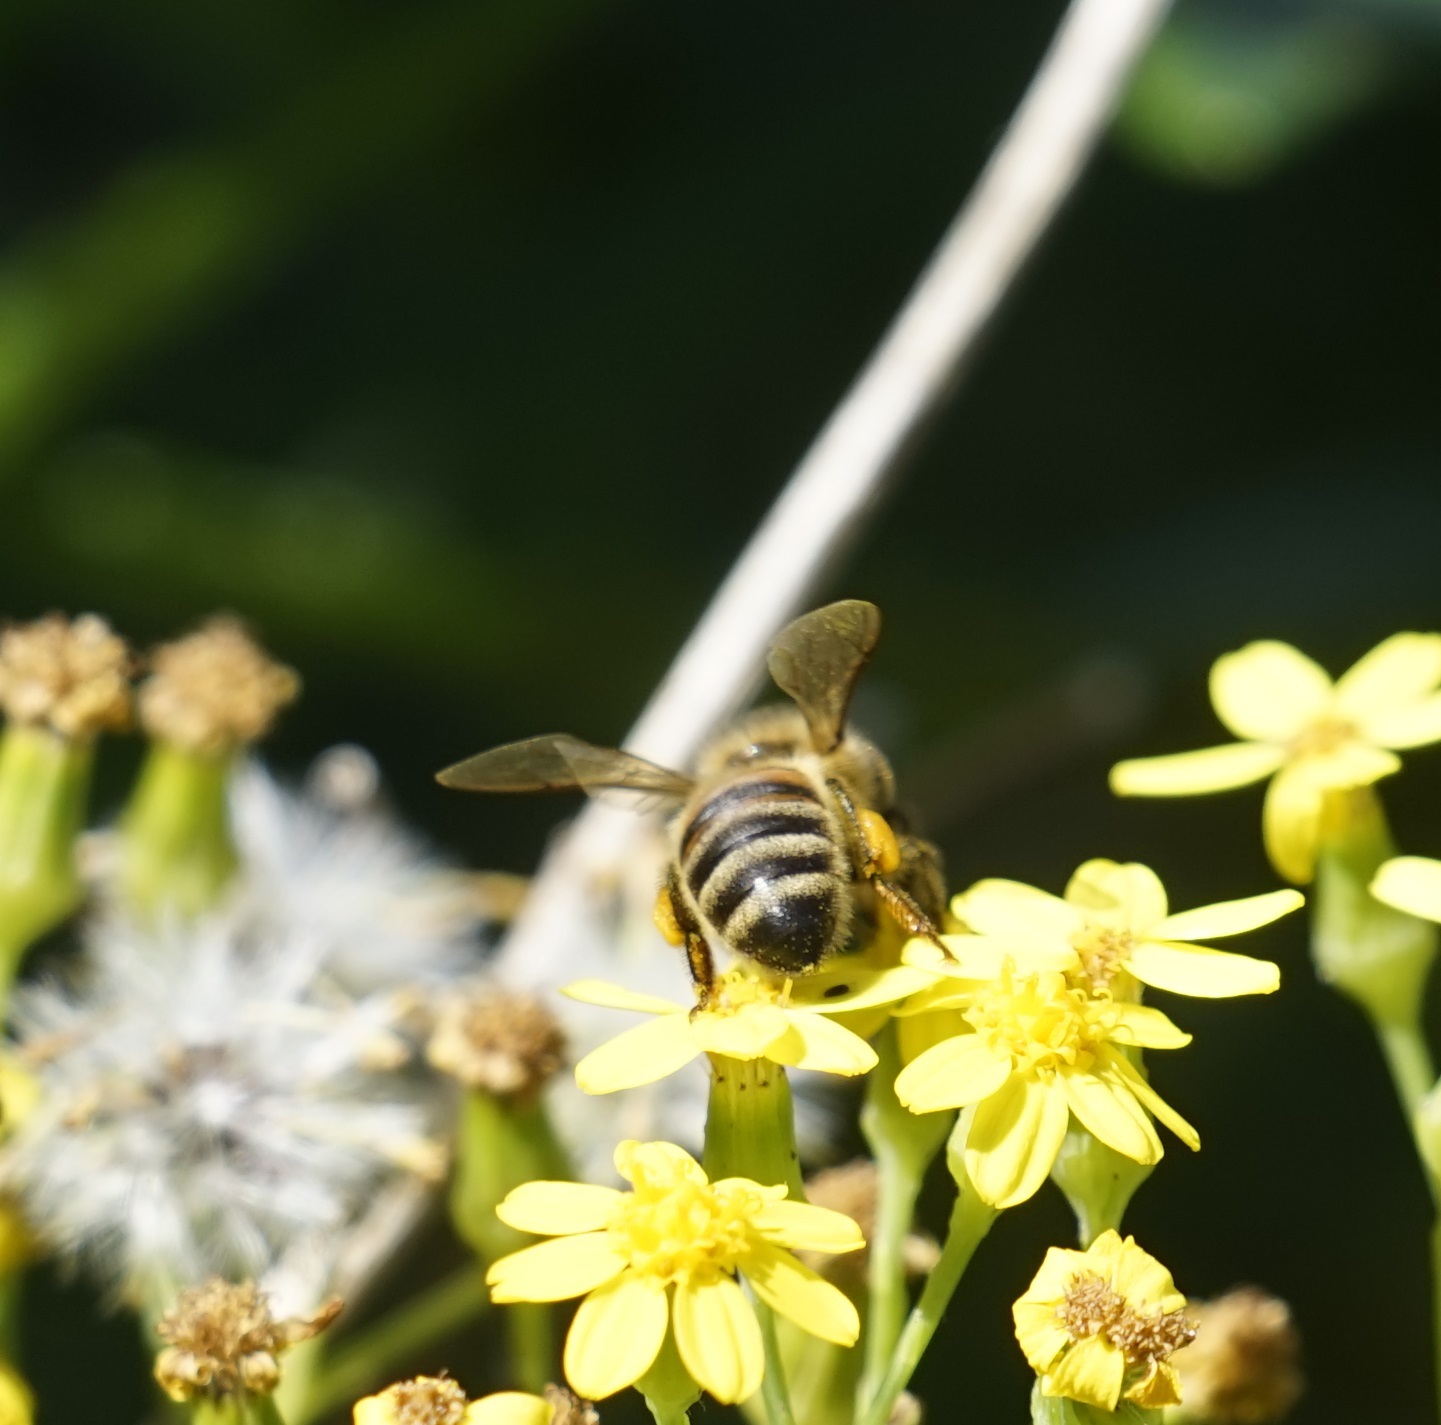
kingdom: Animalia
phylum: Arthropoda
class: Insecta
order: Hymenoptera
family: Apidae
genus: Apis
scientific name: Apis mellifera
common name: Honey bee
